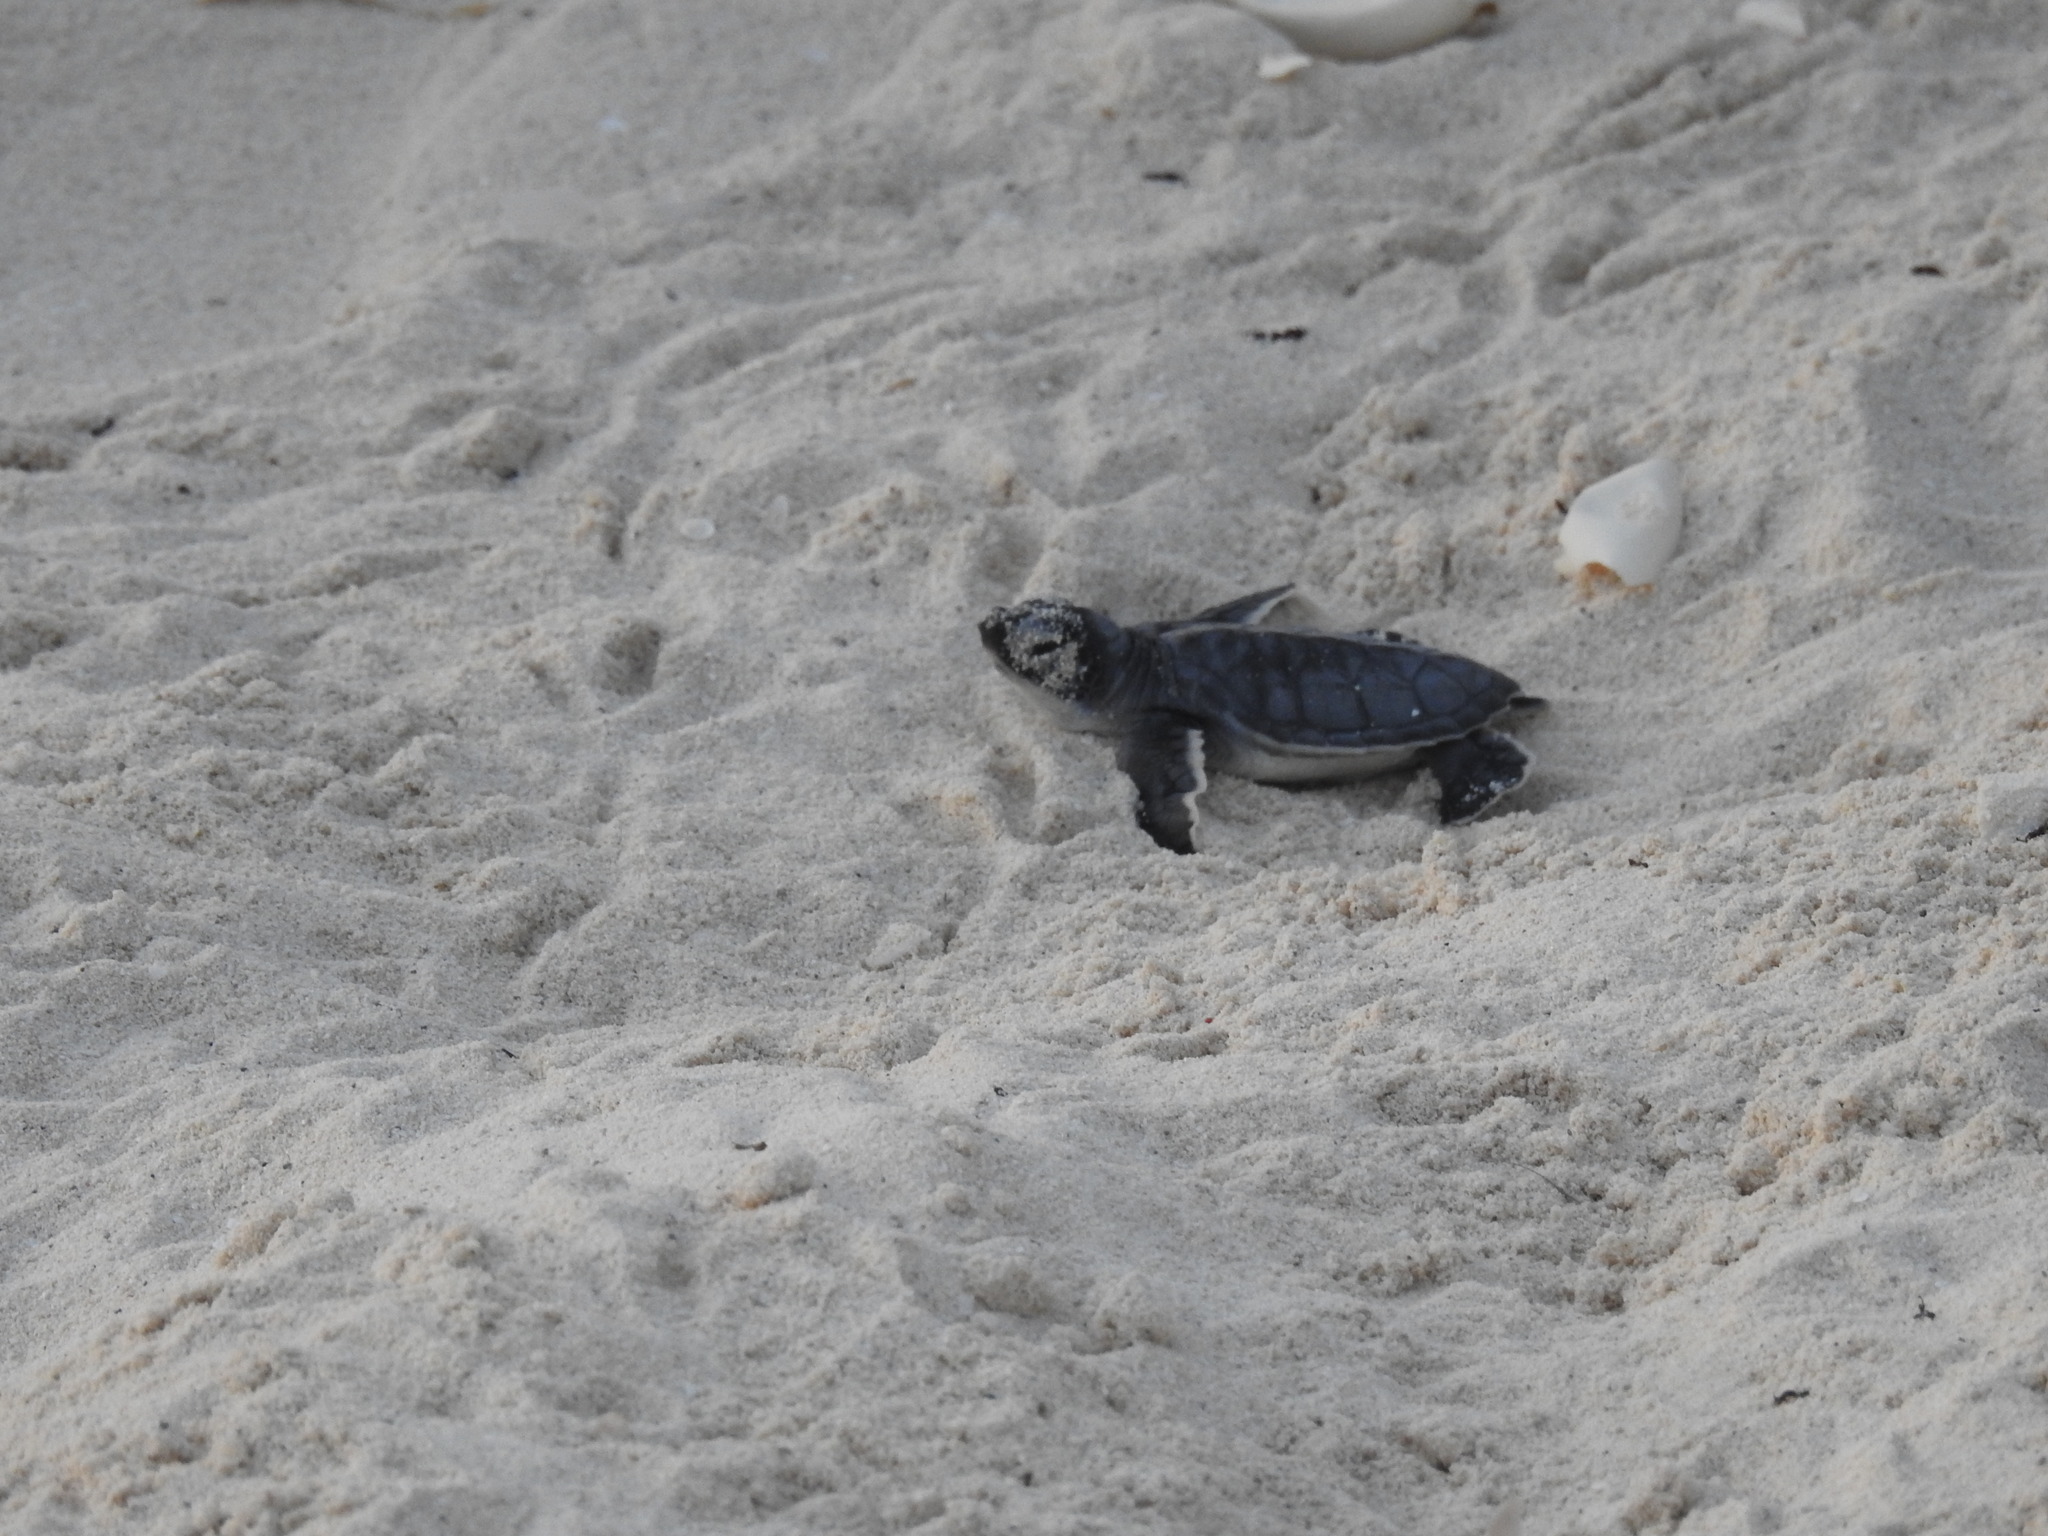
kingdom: Animalia
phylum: Chordata
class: Testudines
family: Cheloniidae
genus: Chelonia
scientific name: Chelonia mydas
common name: Green turtle
